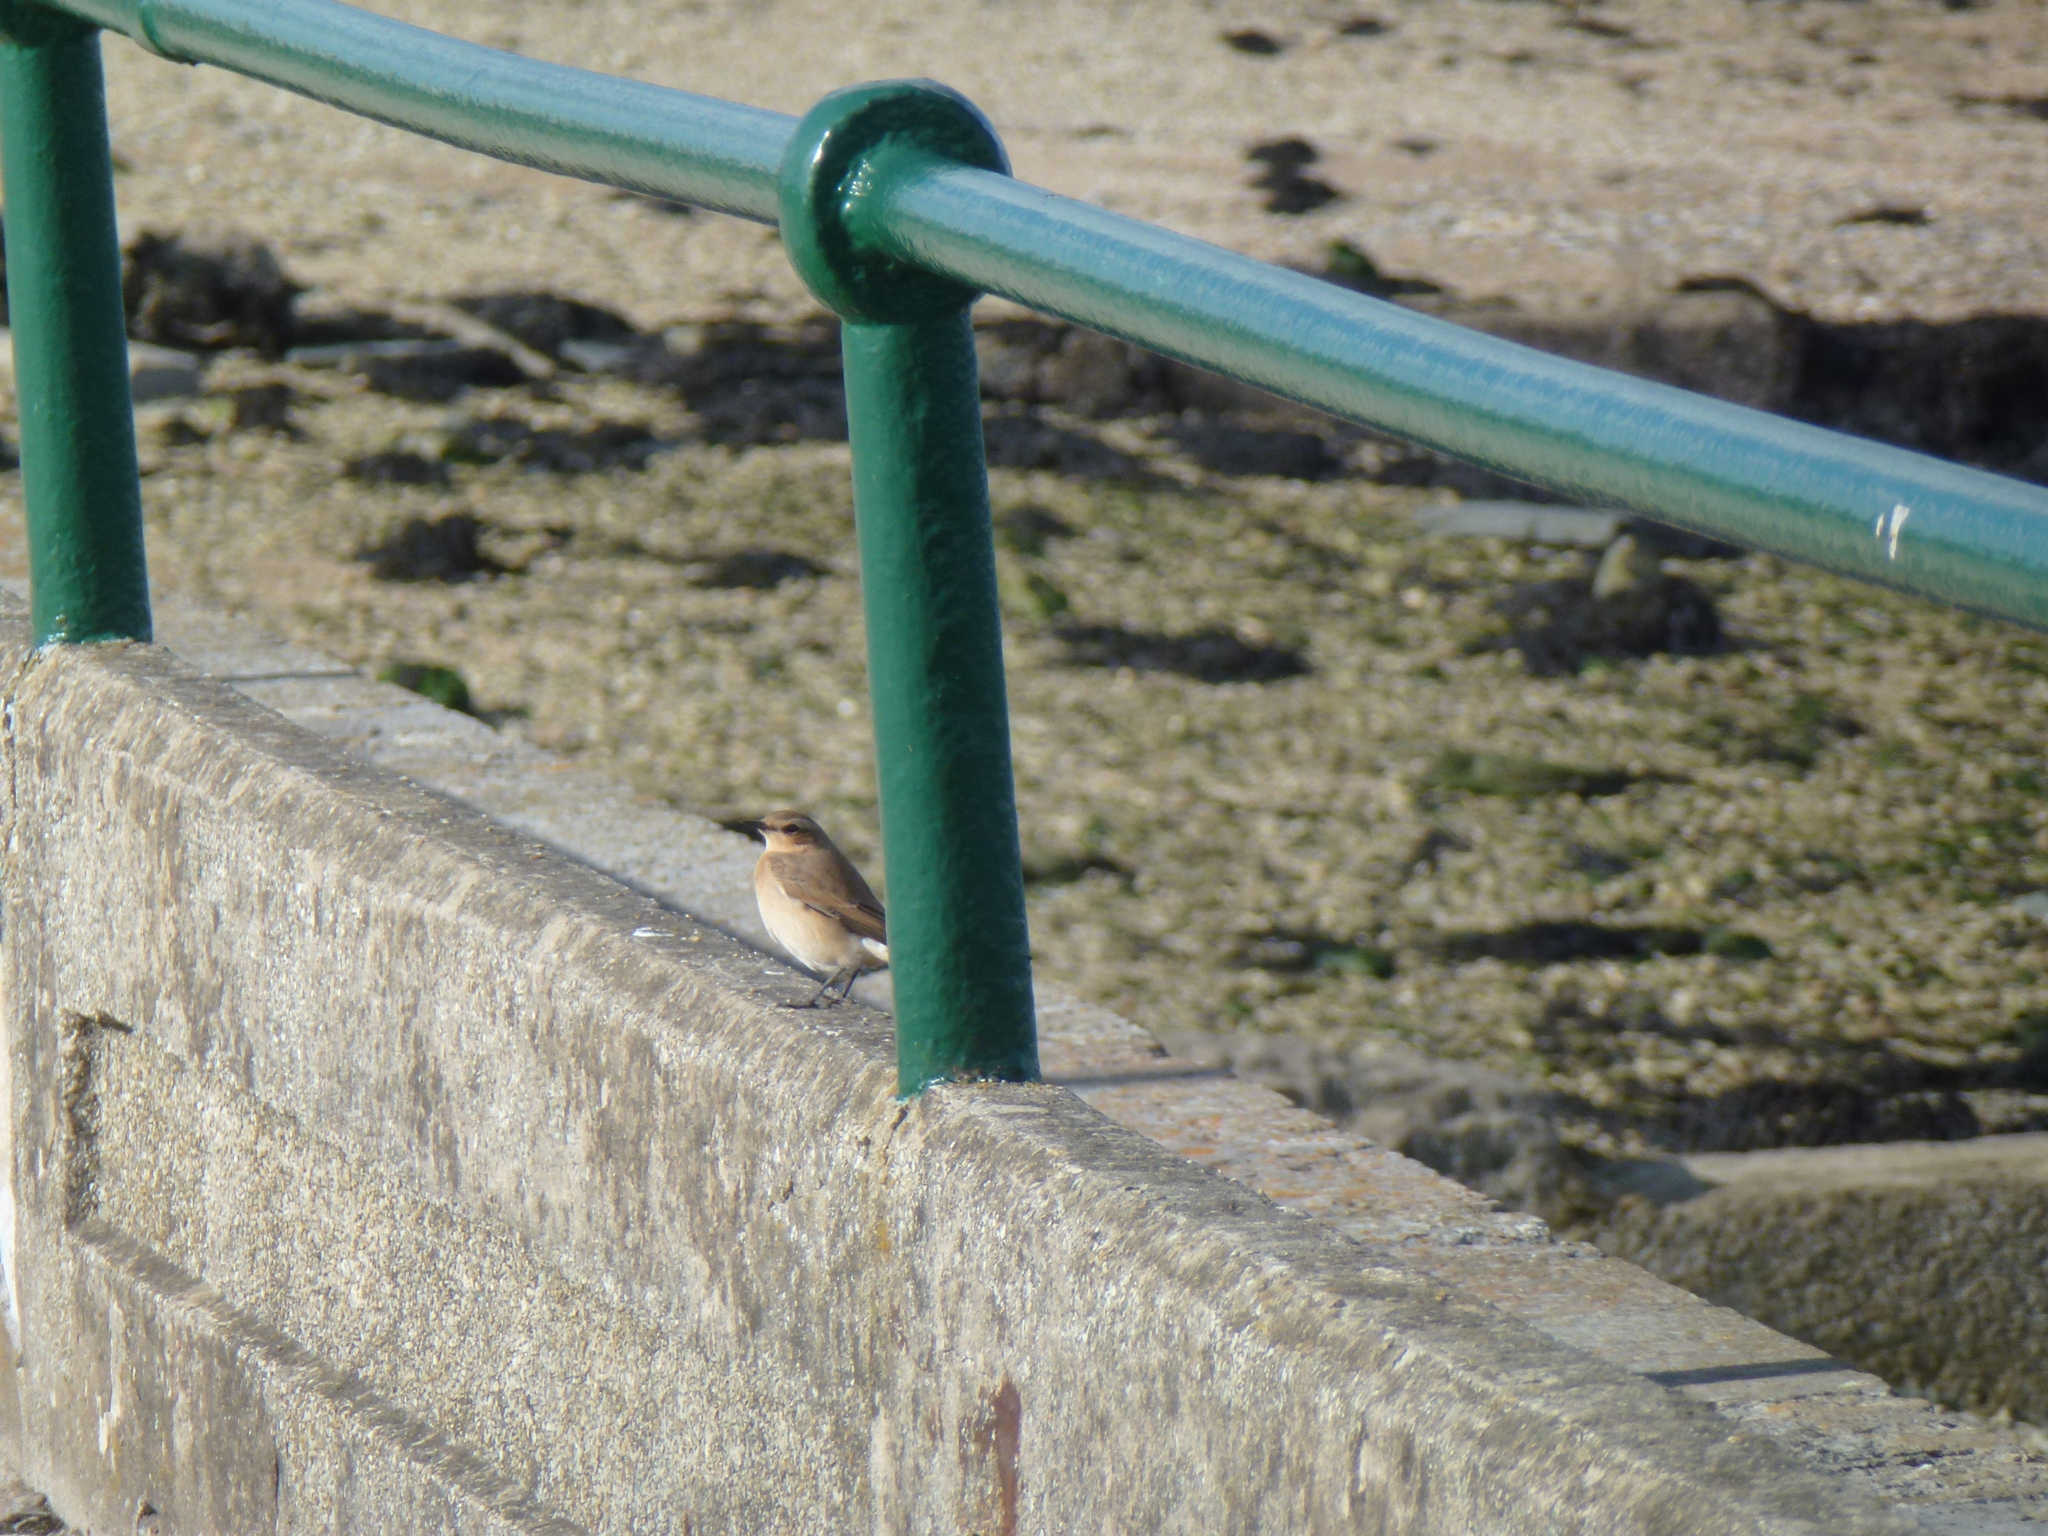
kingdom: Animalia
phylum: Chordata
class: Aves
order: Passeriformes
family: Muscicapidae
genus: Oenanthe
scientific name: Oenanthe oenanthe
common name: Northern wheatear
